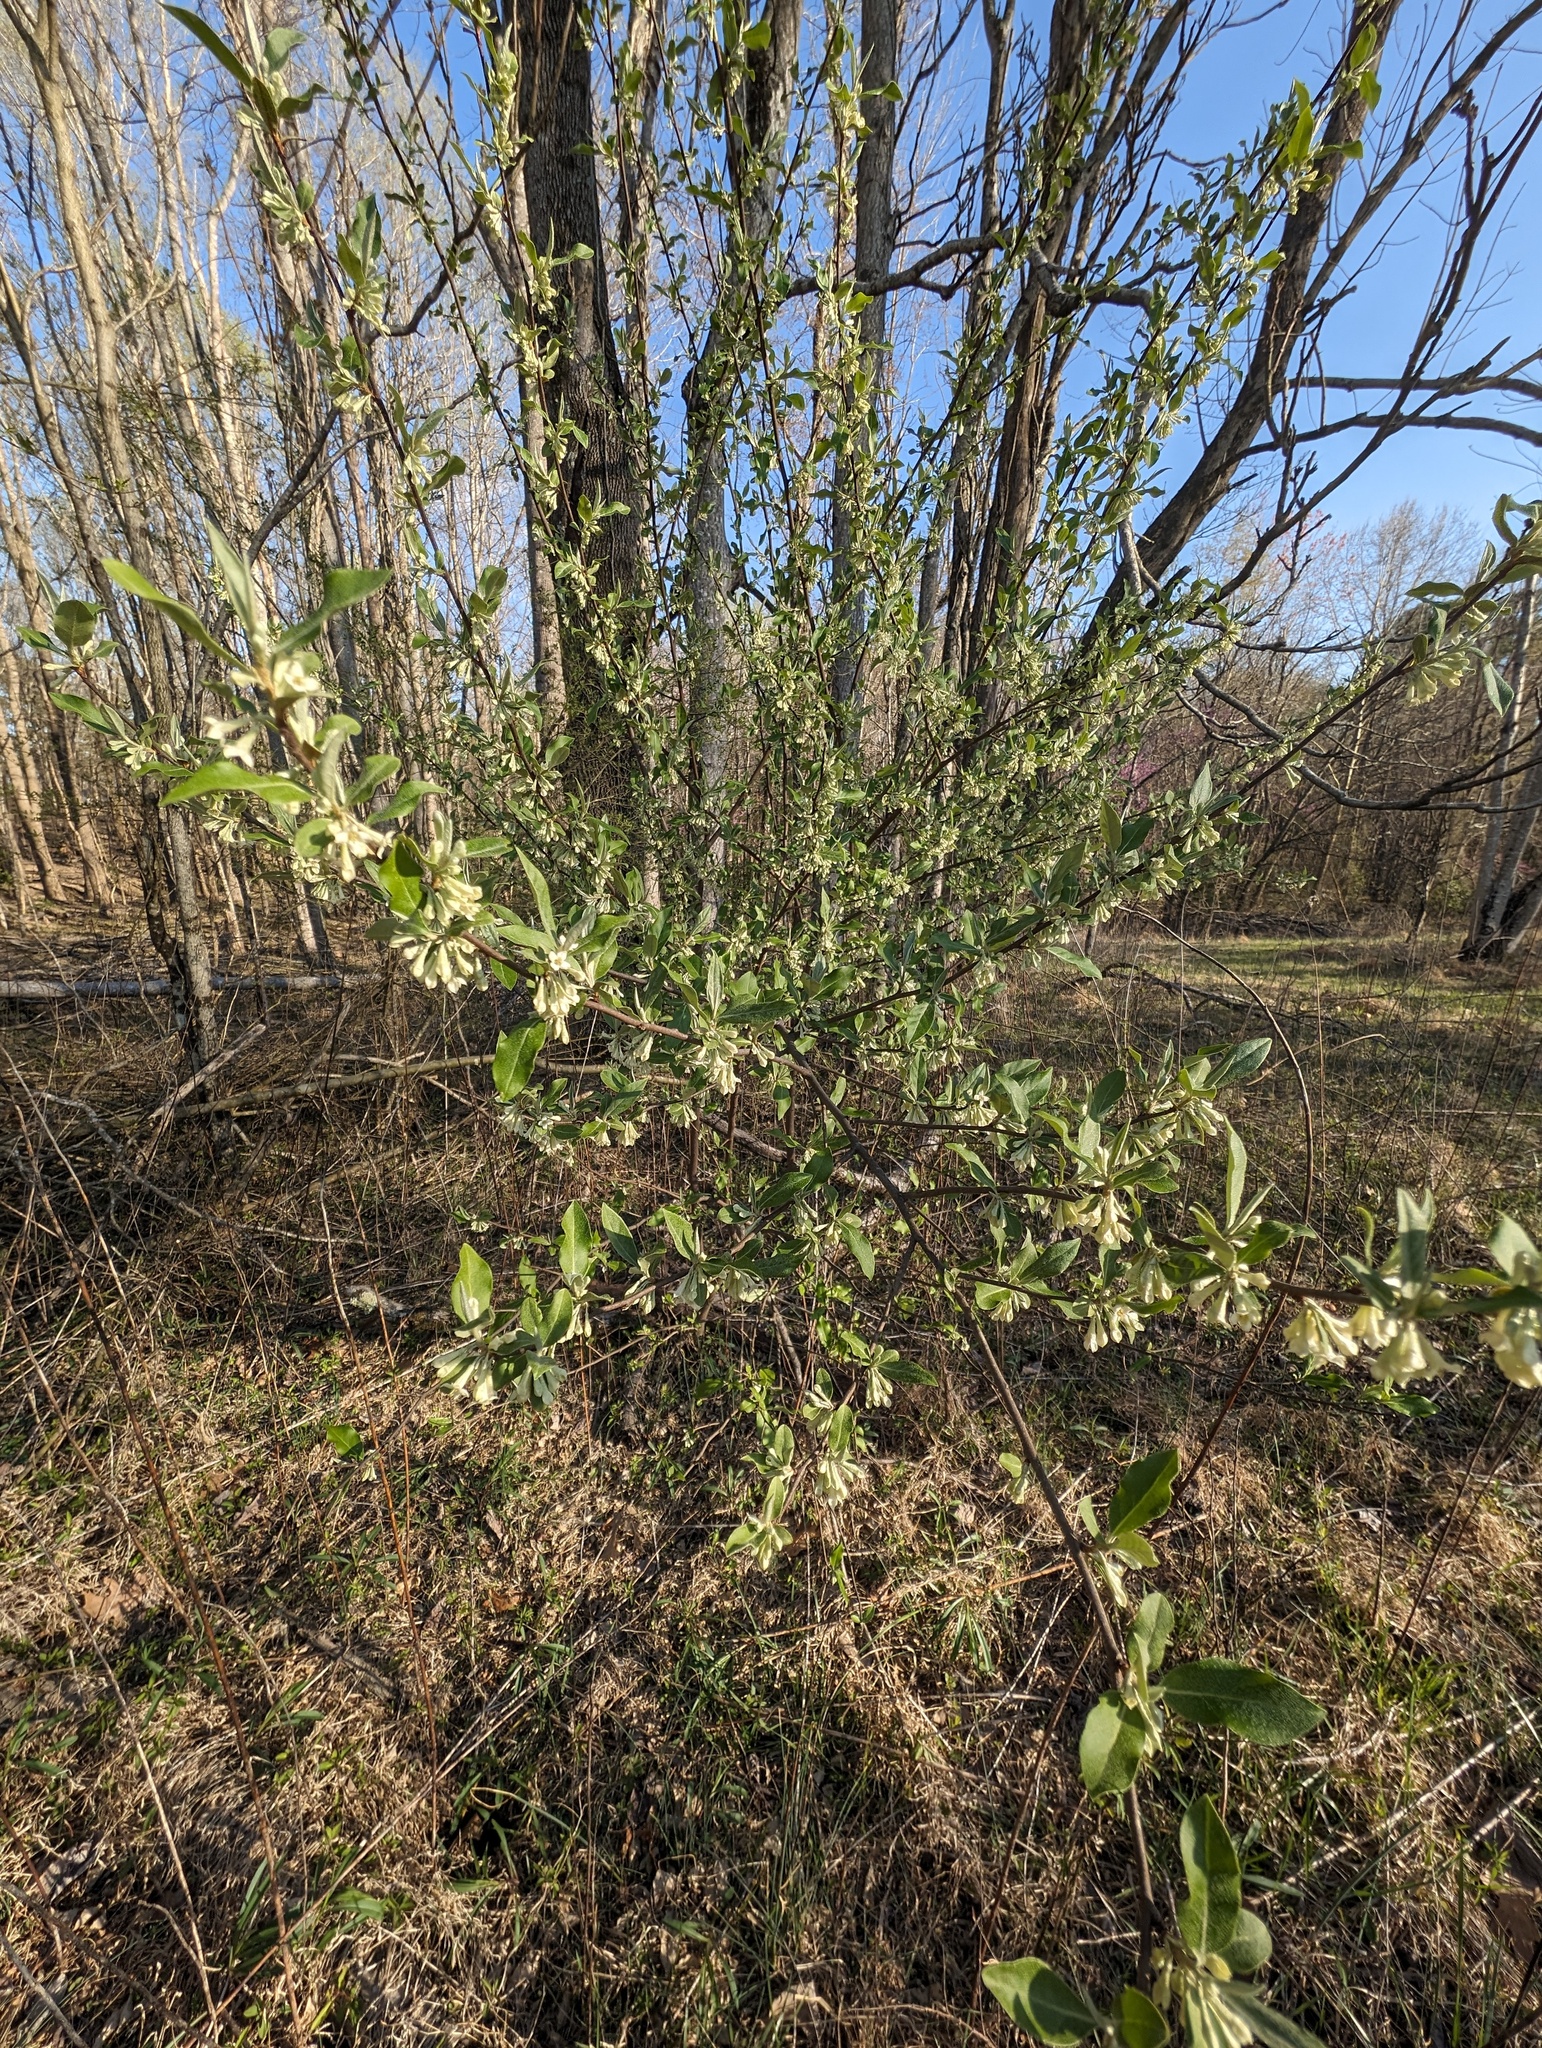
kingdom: Plantae
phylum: Tracheophyta
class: Magnoliopsida
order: Rosales
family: Elaeagnaceae
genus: Elaeagnus
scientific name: Elaeagnus umbellata
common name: Autumn olive
